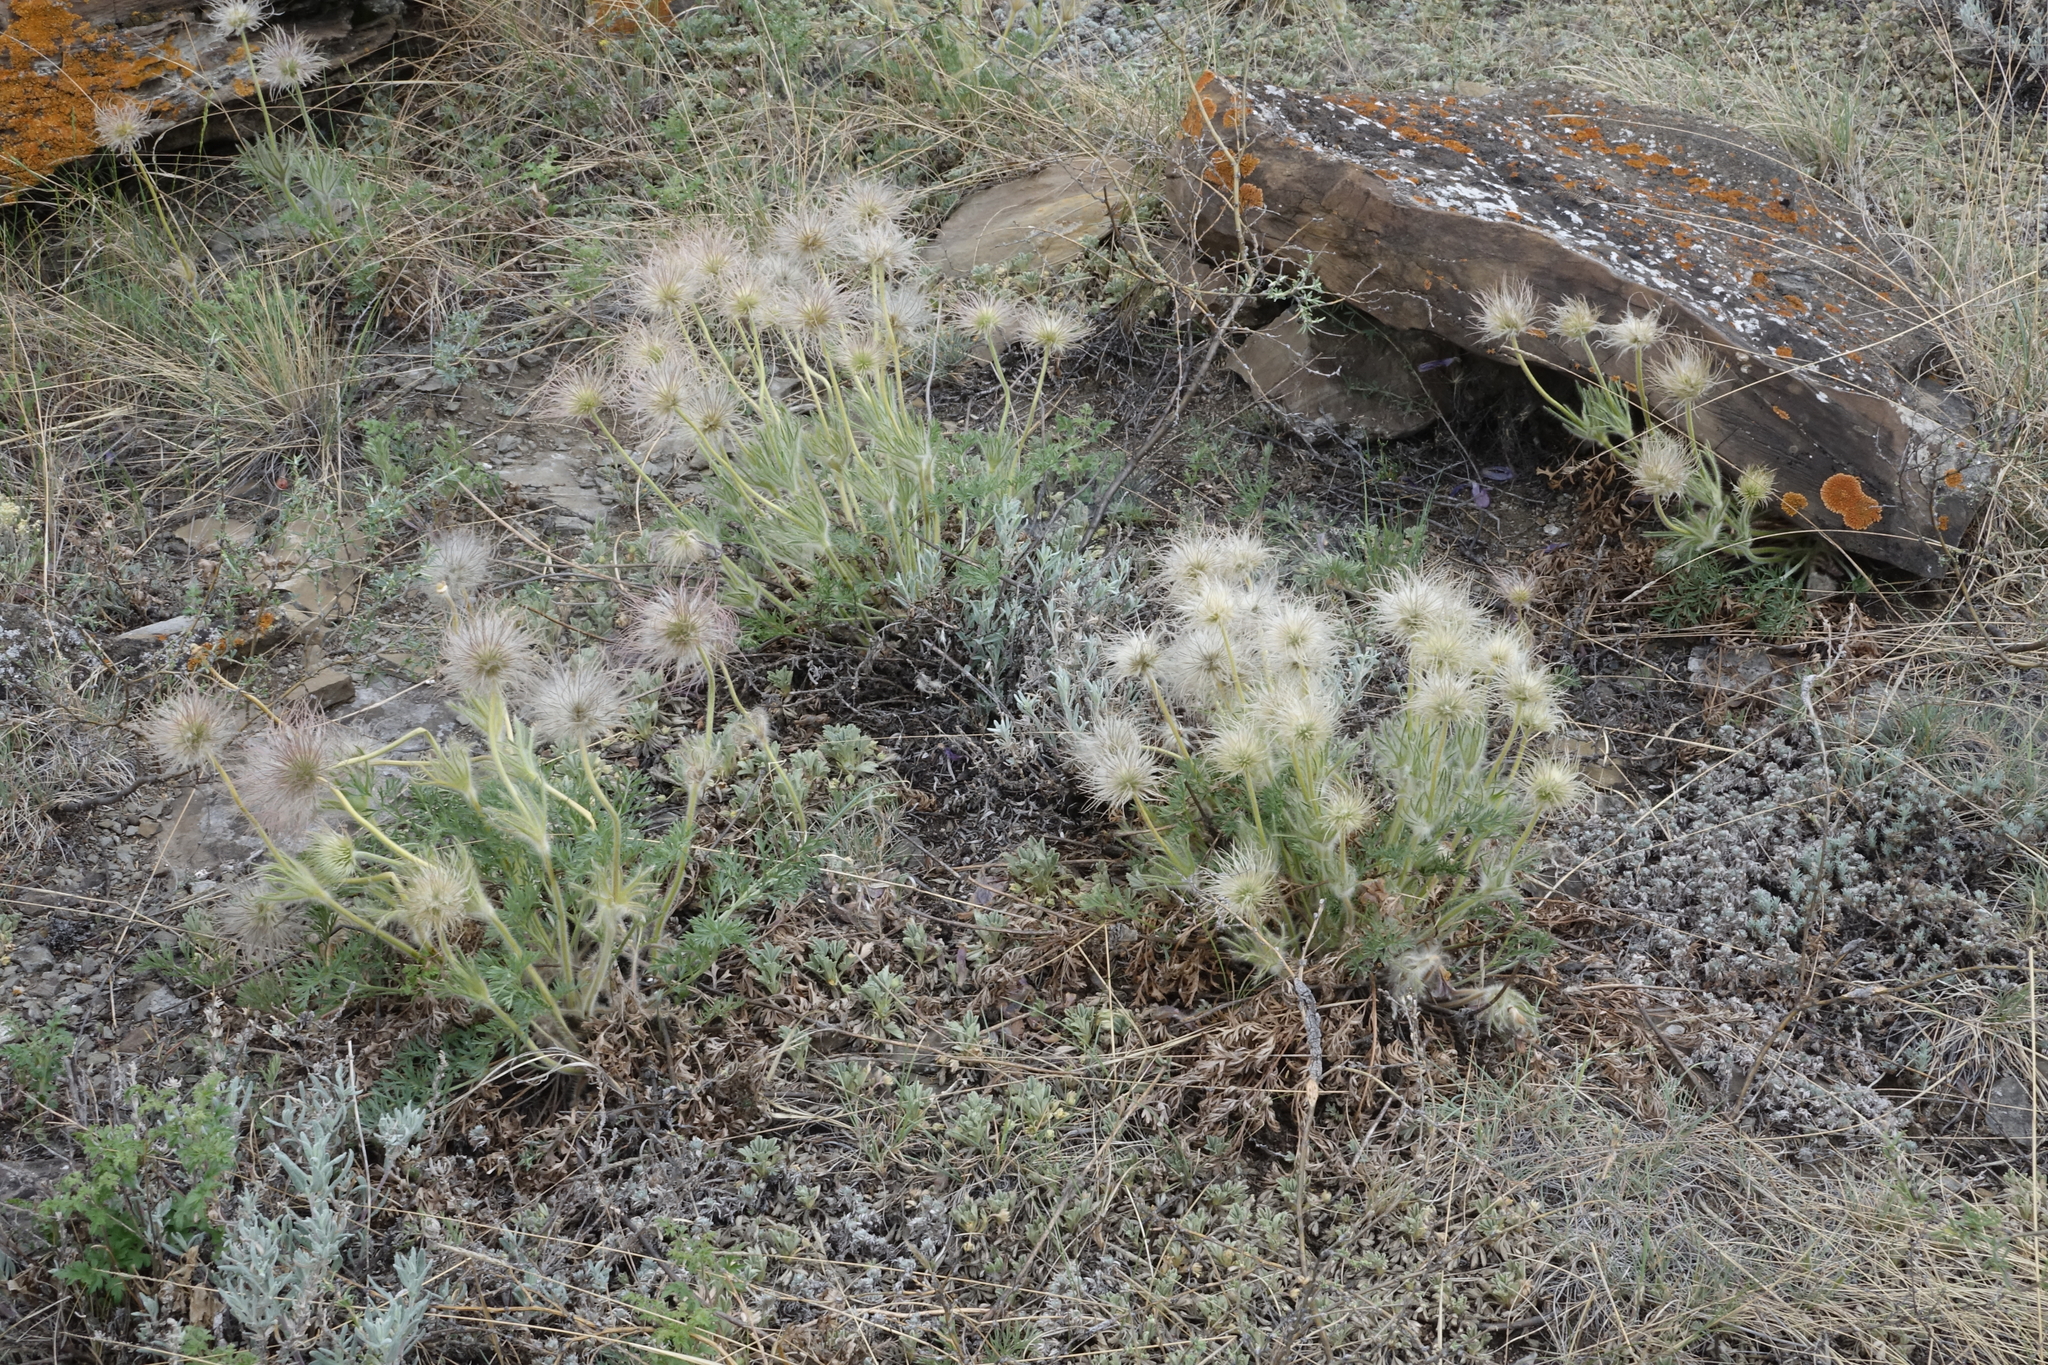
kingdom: Plantae
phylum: Tracheophyta
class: Magnoliopsida
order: Ranunculales
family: Ranunculaceae
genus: Pulsatilla
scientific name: Pulsatilla turczaninovii
